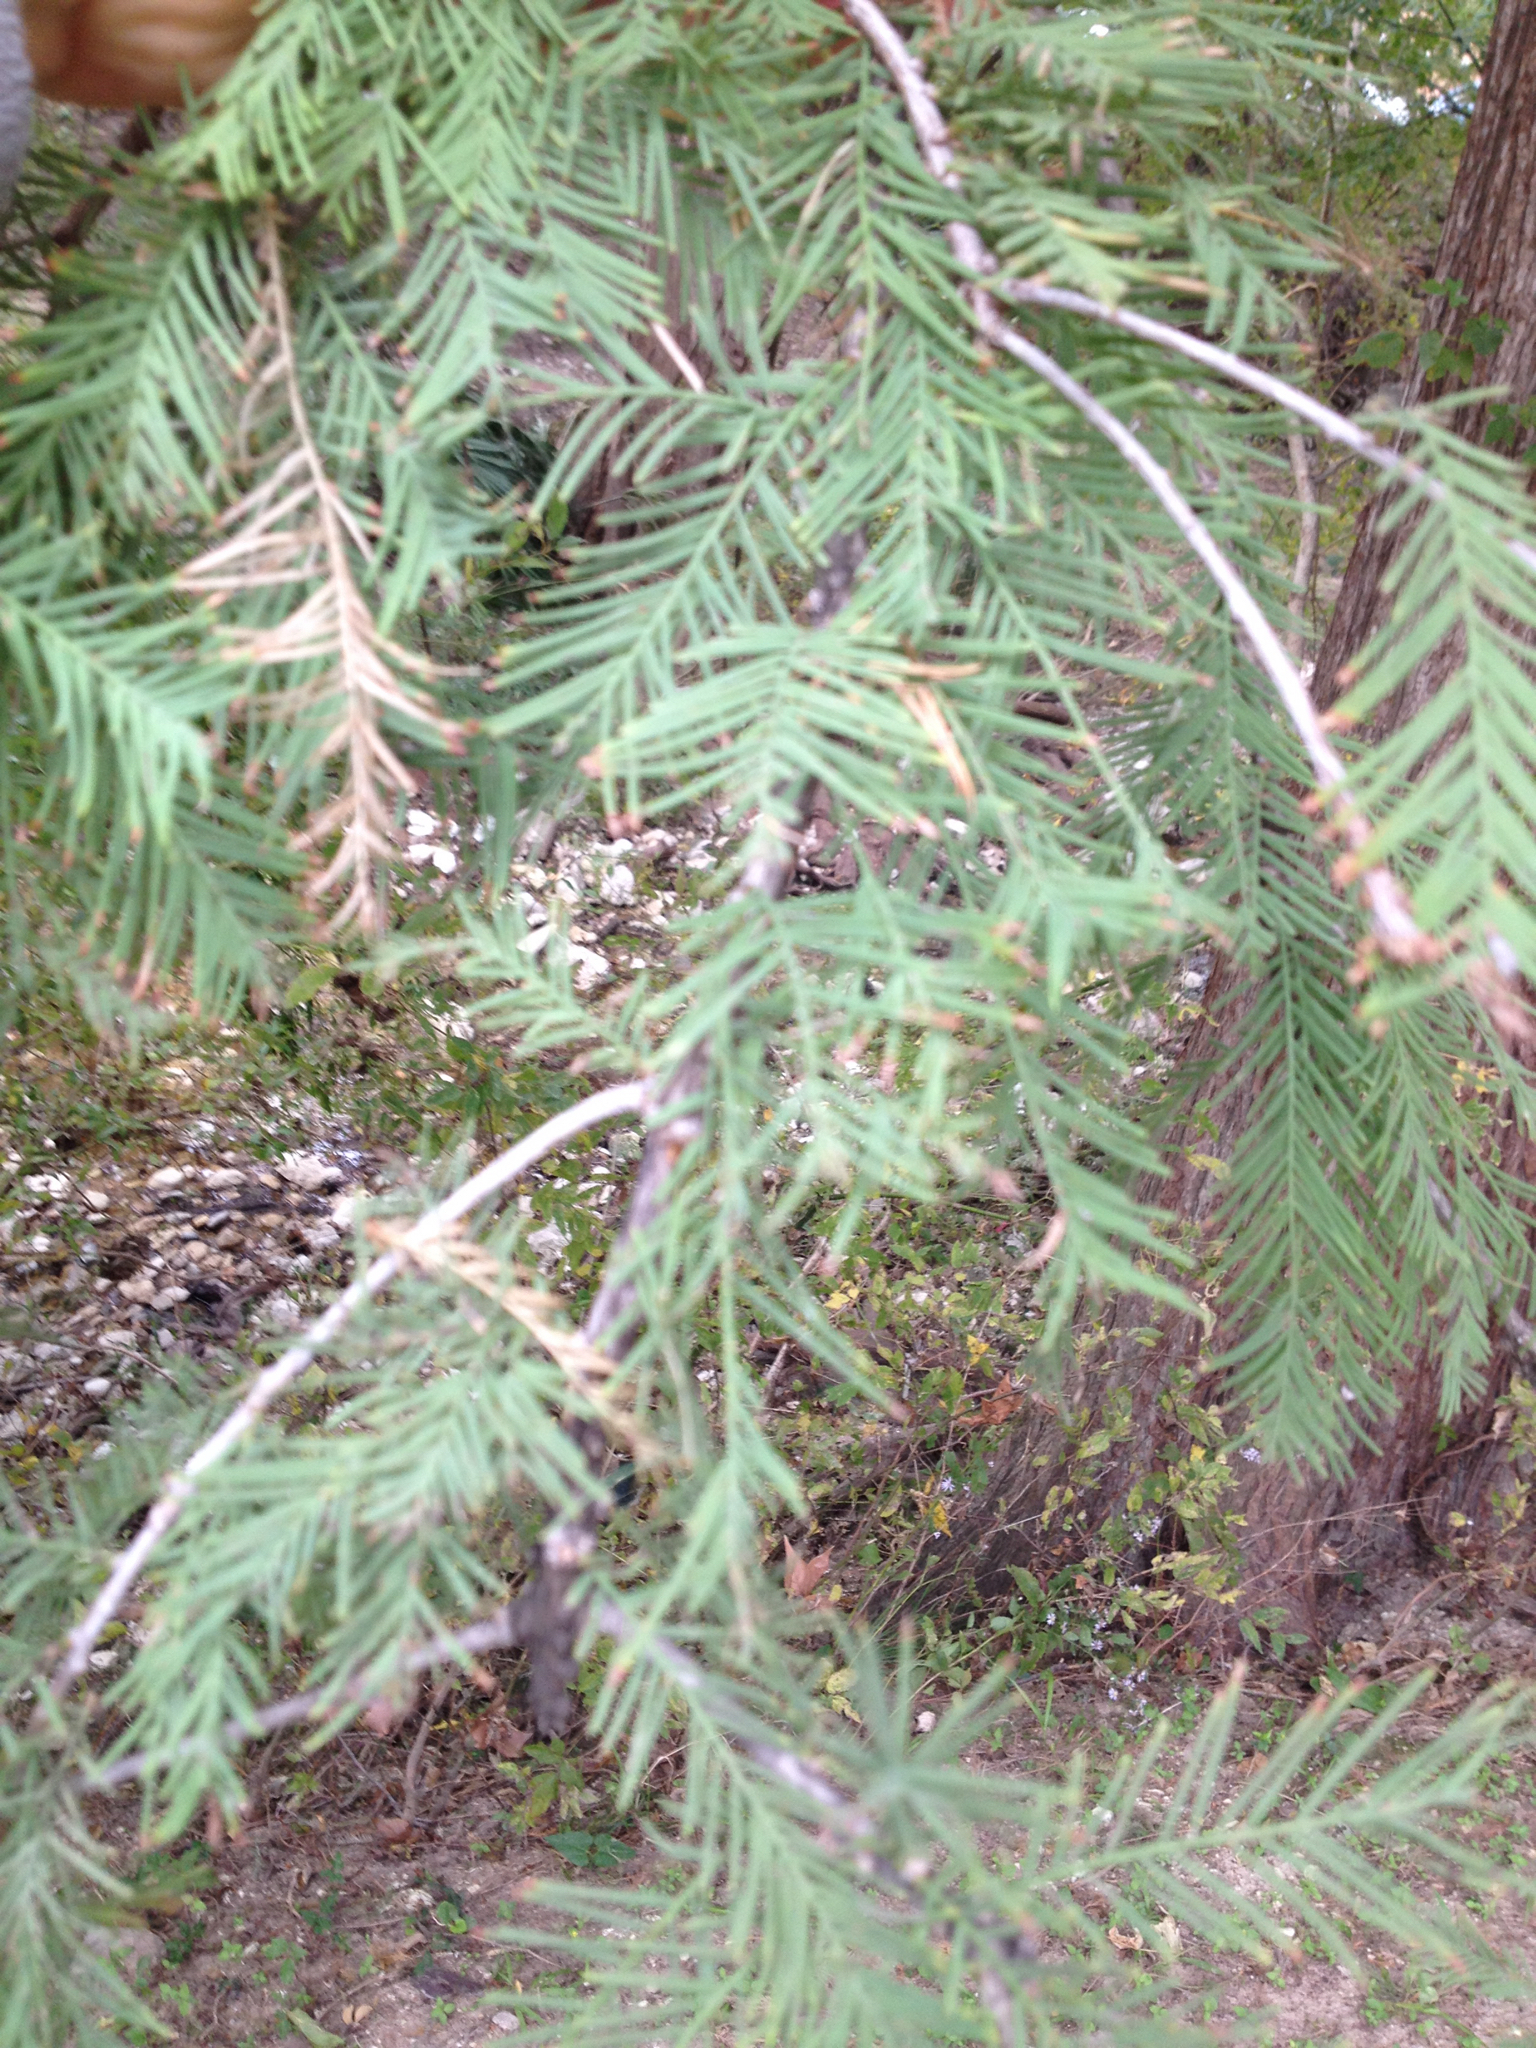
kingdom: Plantae
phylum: Tracheophyta
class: Pinopsida
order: Pinales
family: Cupressaceae
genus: Taxodium
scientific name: Taxodium distichum
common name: Bald cypress
